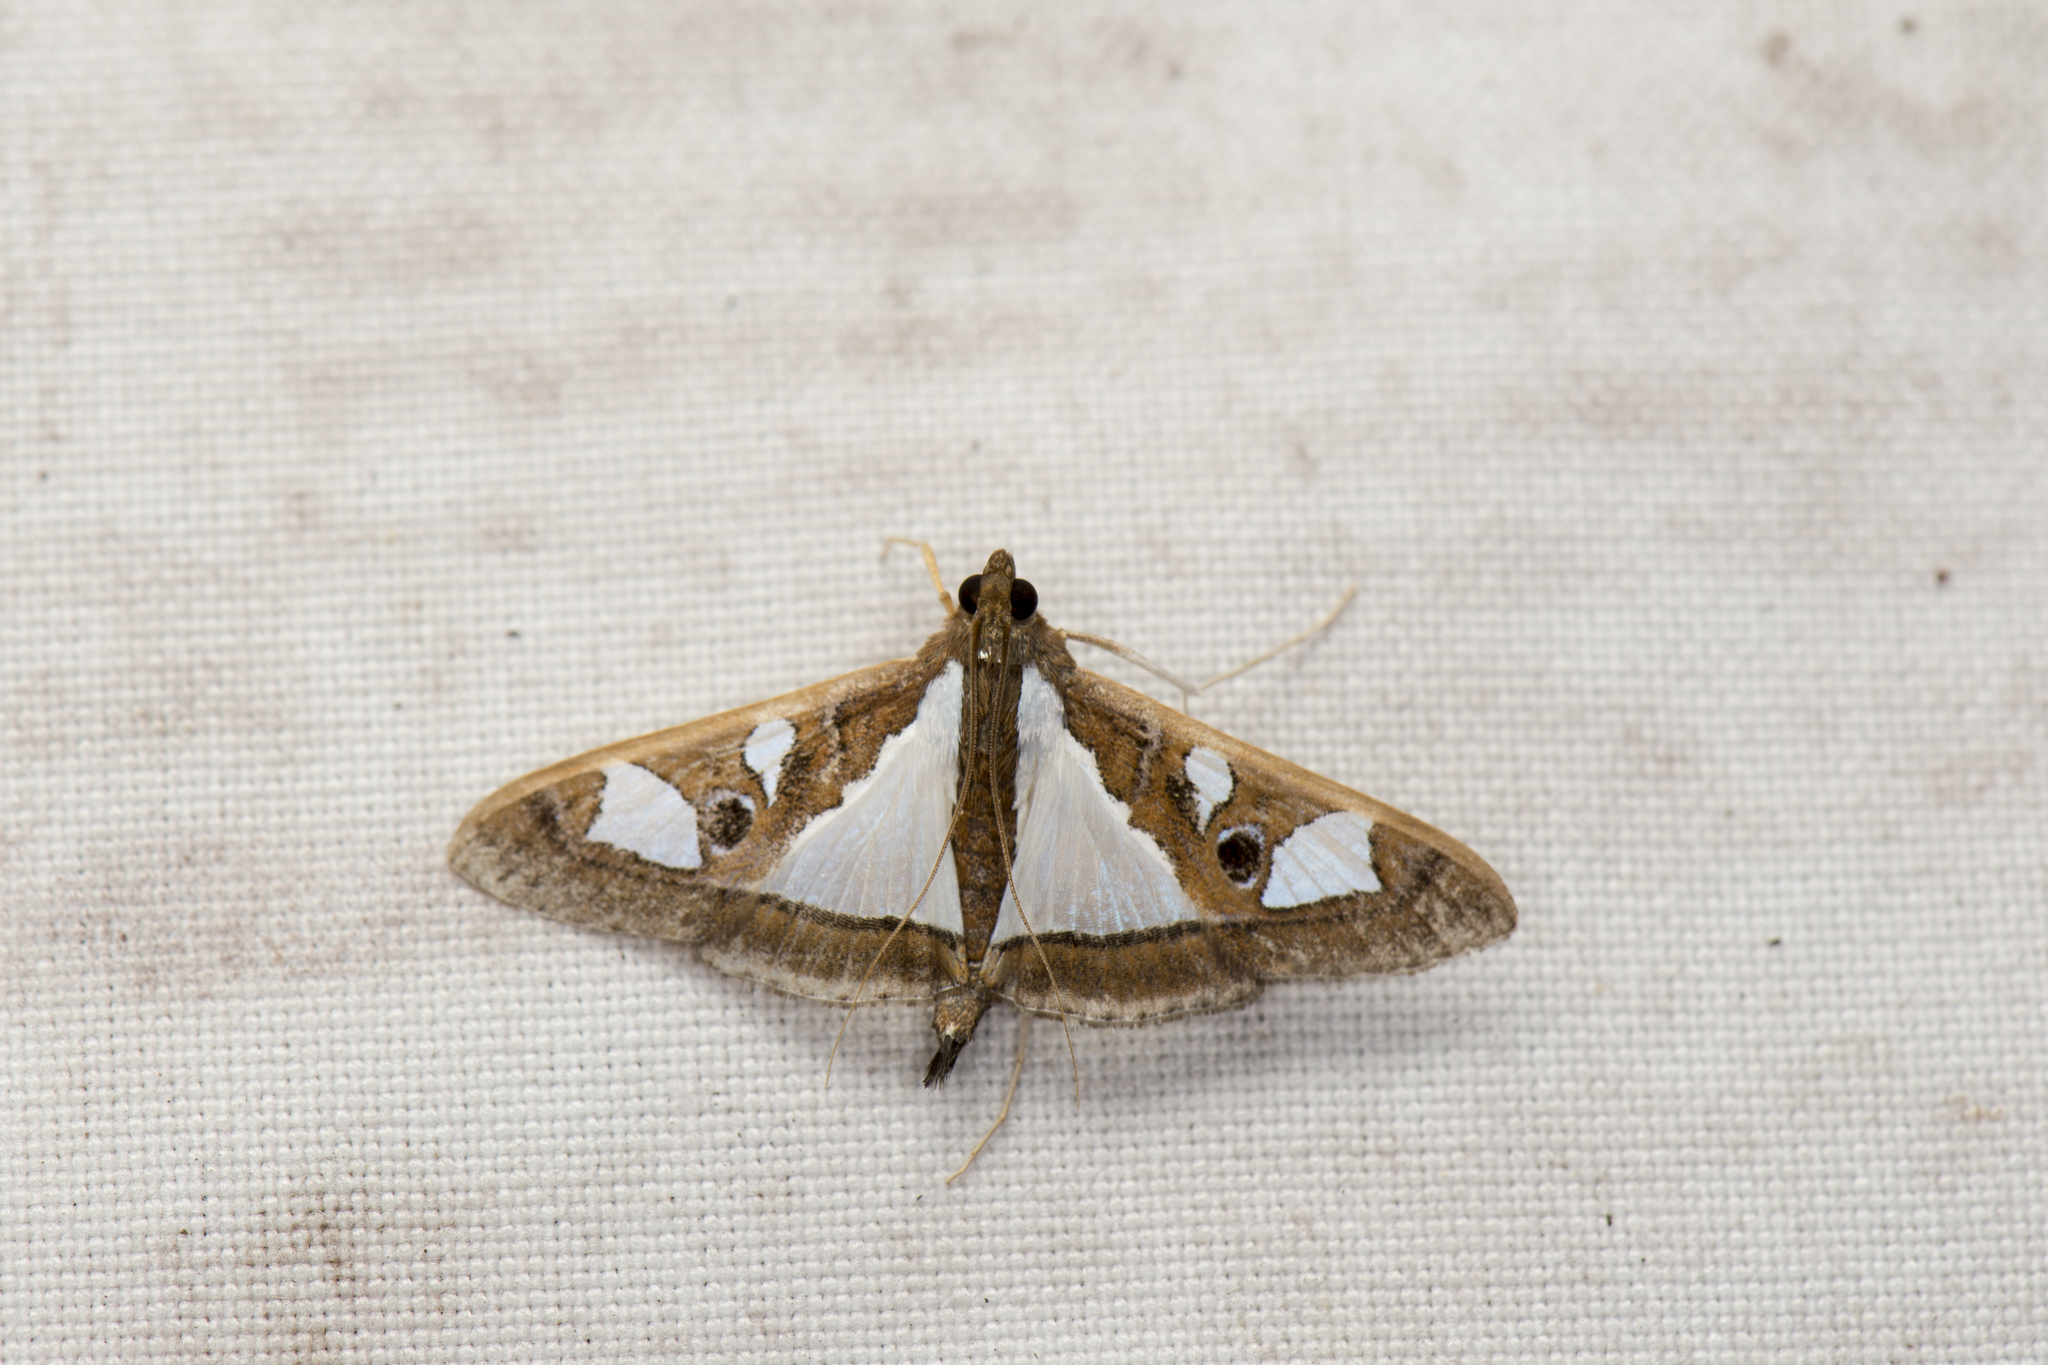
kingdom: Animalia
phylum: Arthropoda
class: Insecta
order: Lepidoptera
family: Crambidae
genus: Glyphodes
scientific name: Glyphodes bivitralis
